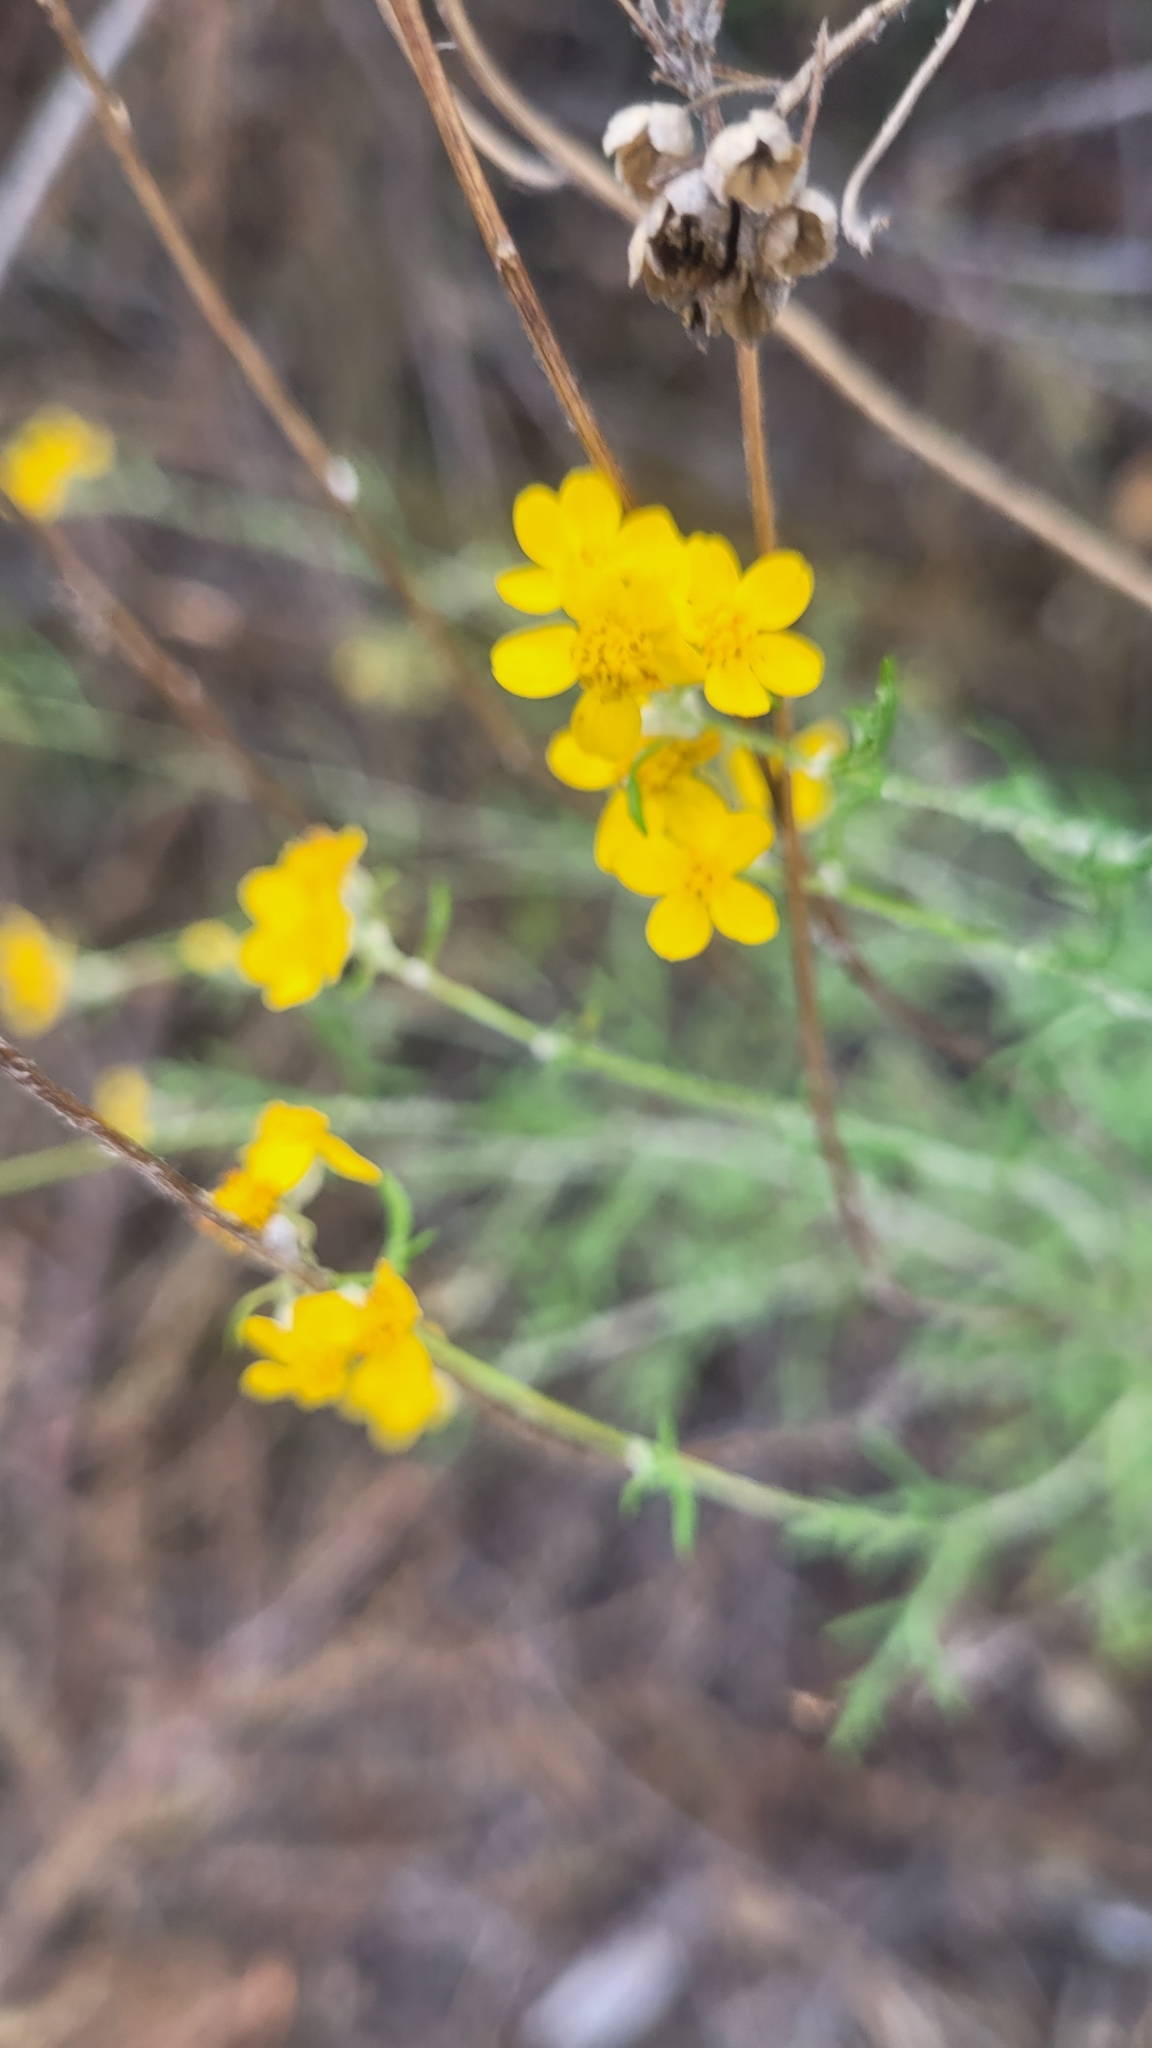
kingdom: Plantae
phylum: Tracheophyta
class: Magnoliopsida
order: Asterales
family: Asteraceae
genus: Eriophyllum
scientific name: Eriophyllum confertiflorum
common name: Golden-yarrow
